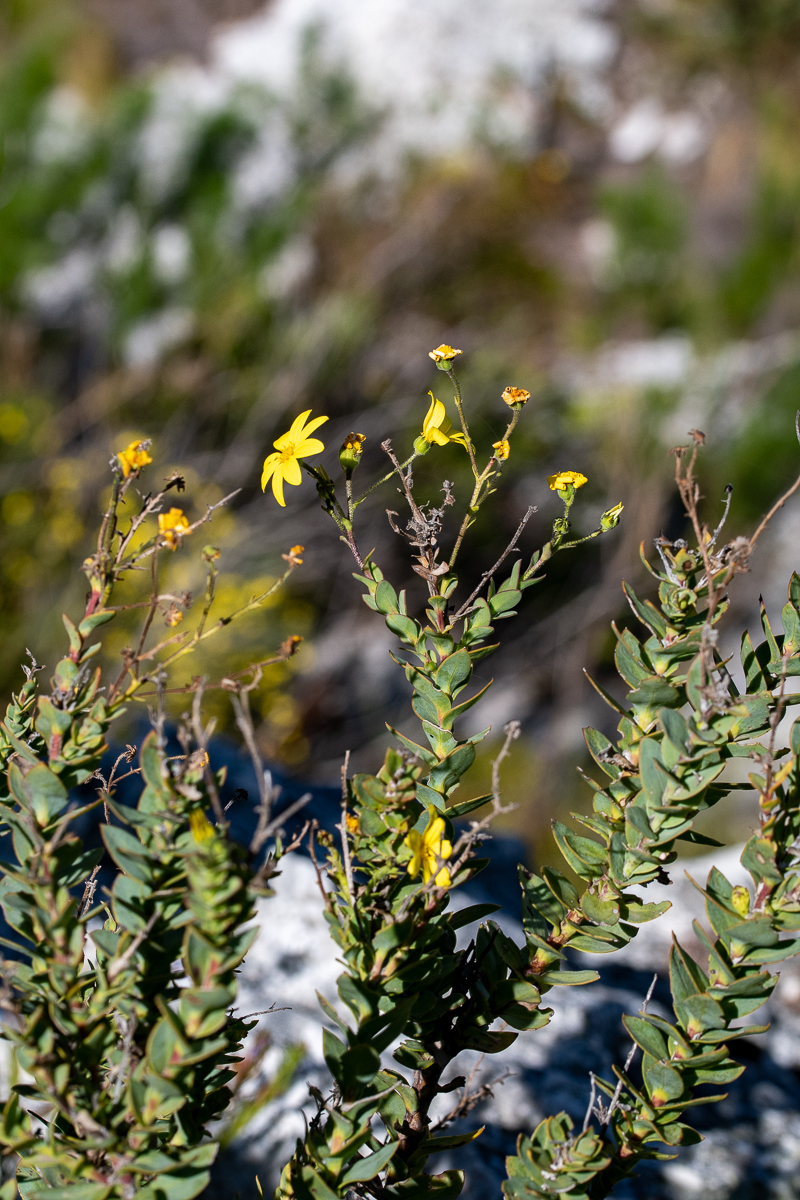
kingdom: Plantae
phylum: Tracheophyta
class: Magnoliopsida
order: Asterales
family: Asteraceae
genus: Osteospermum
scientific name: Osteospermum rotundifolium
